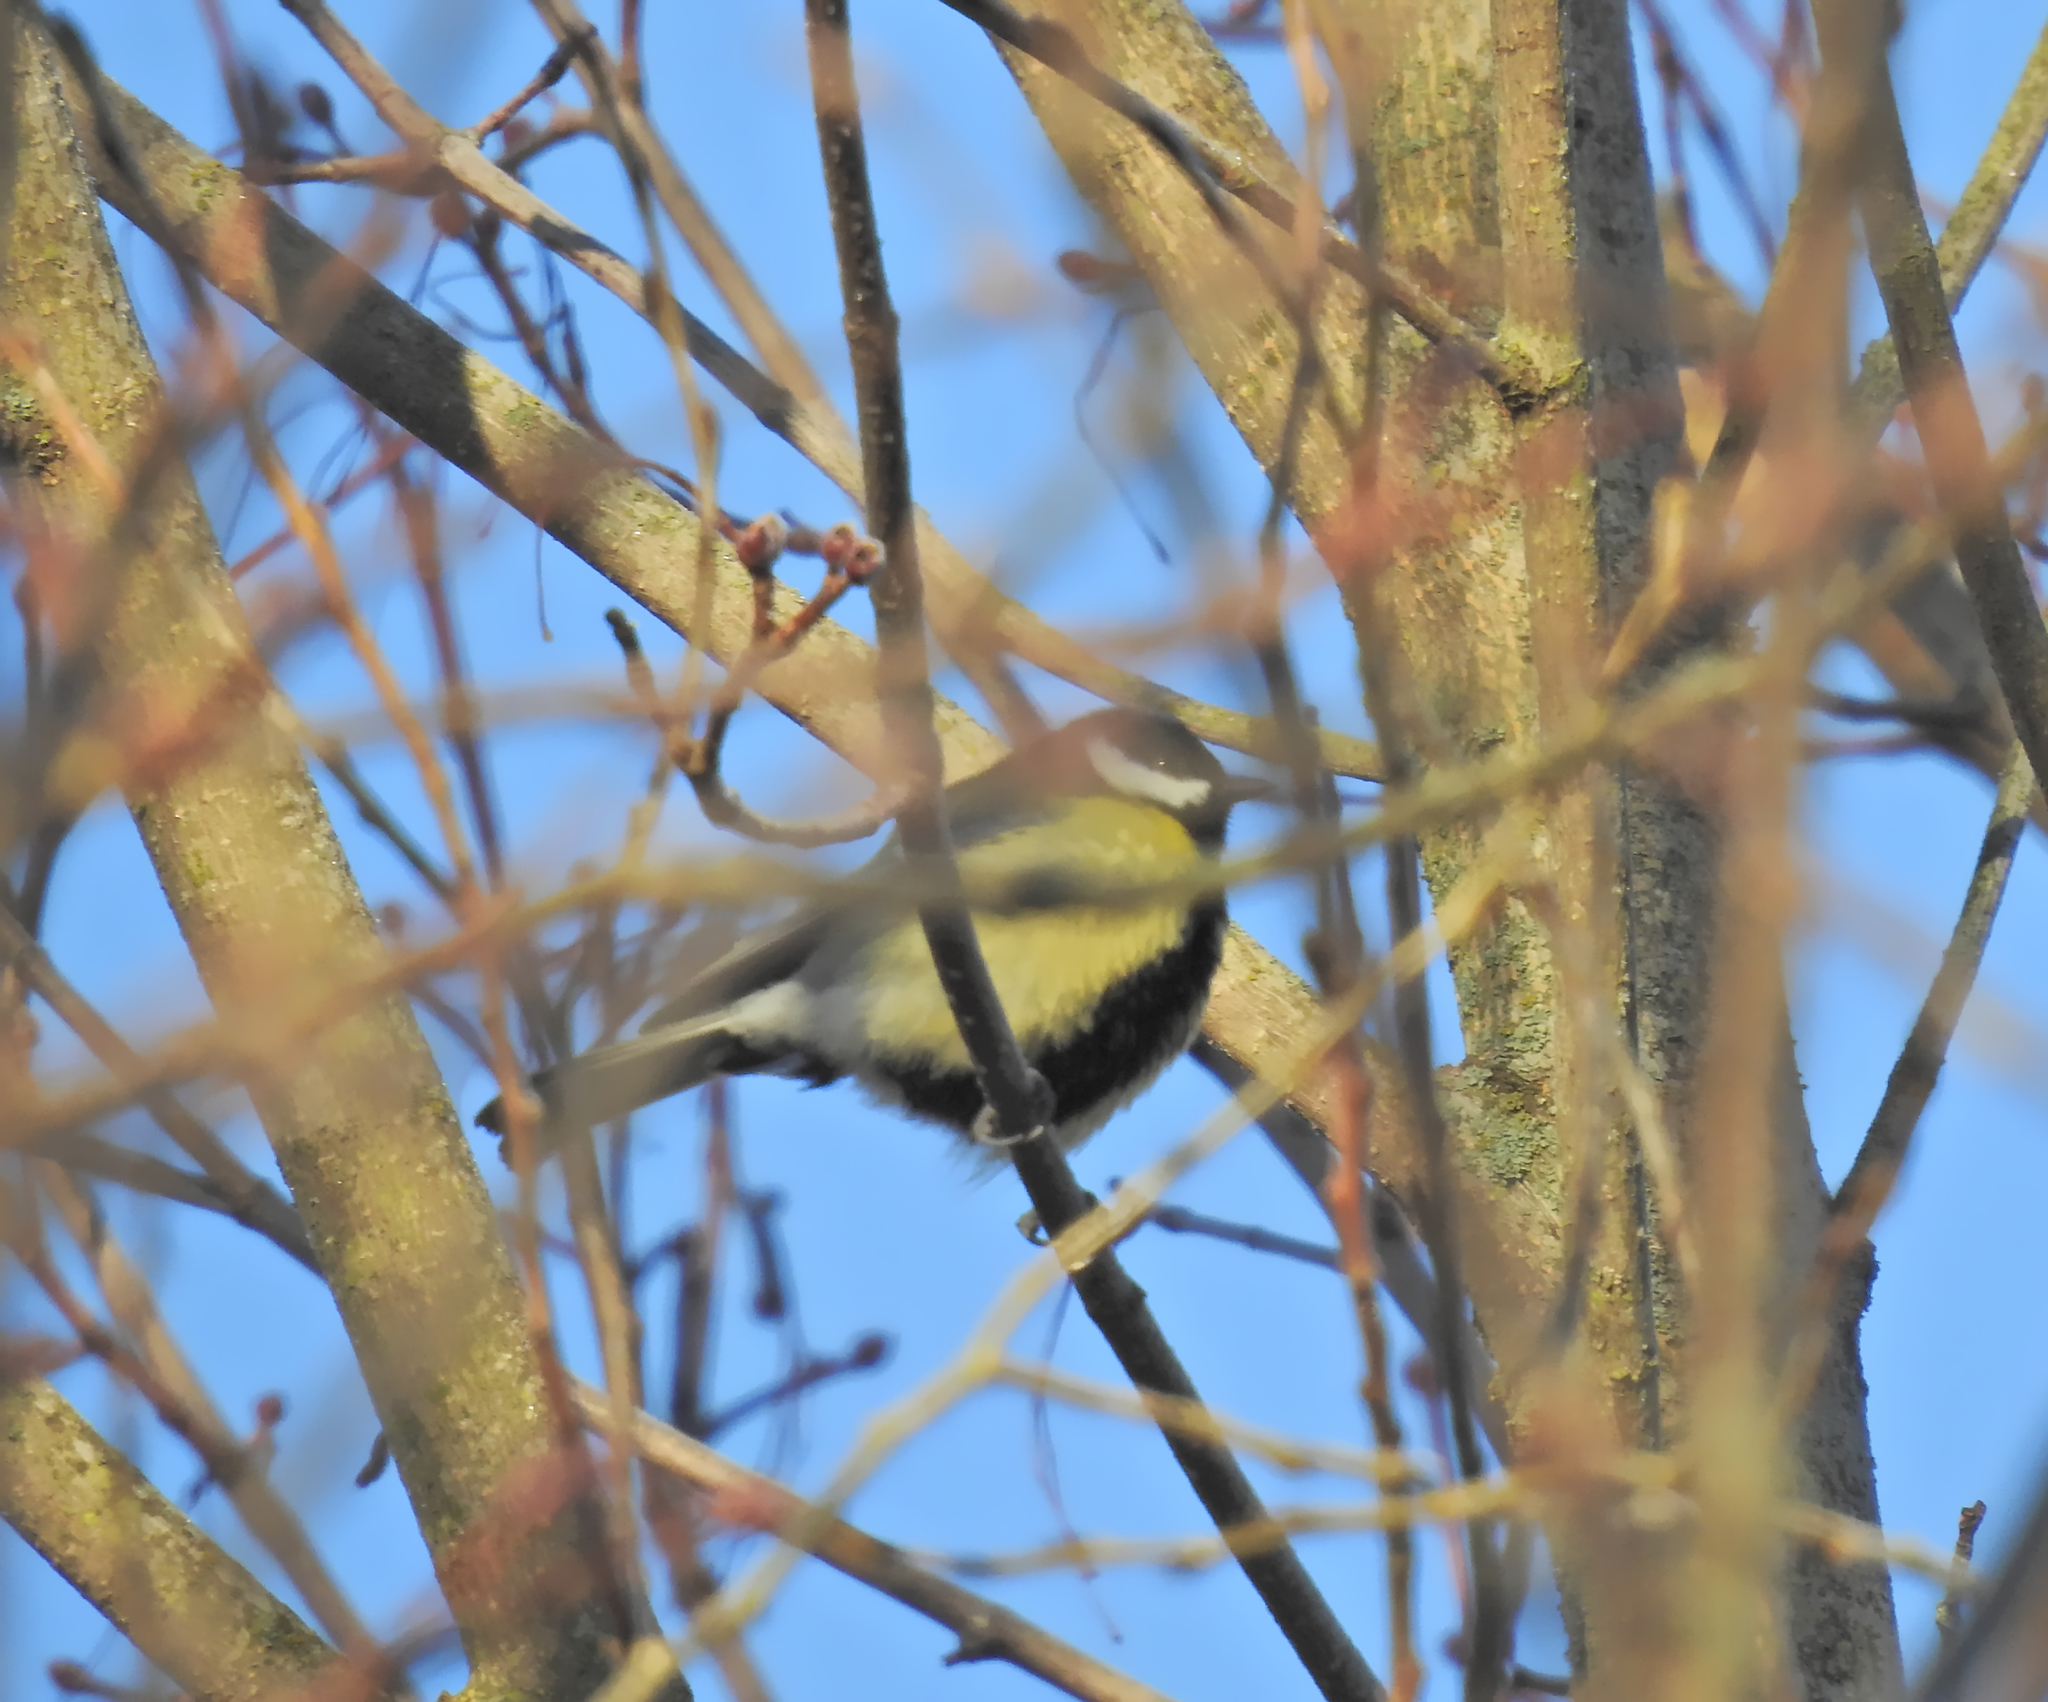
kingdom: Animalia
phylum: Chordata
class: Aves
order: Passeriformes
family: Paridae
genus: Parus
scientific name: Parus major
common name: Great tit
